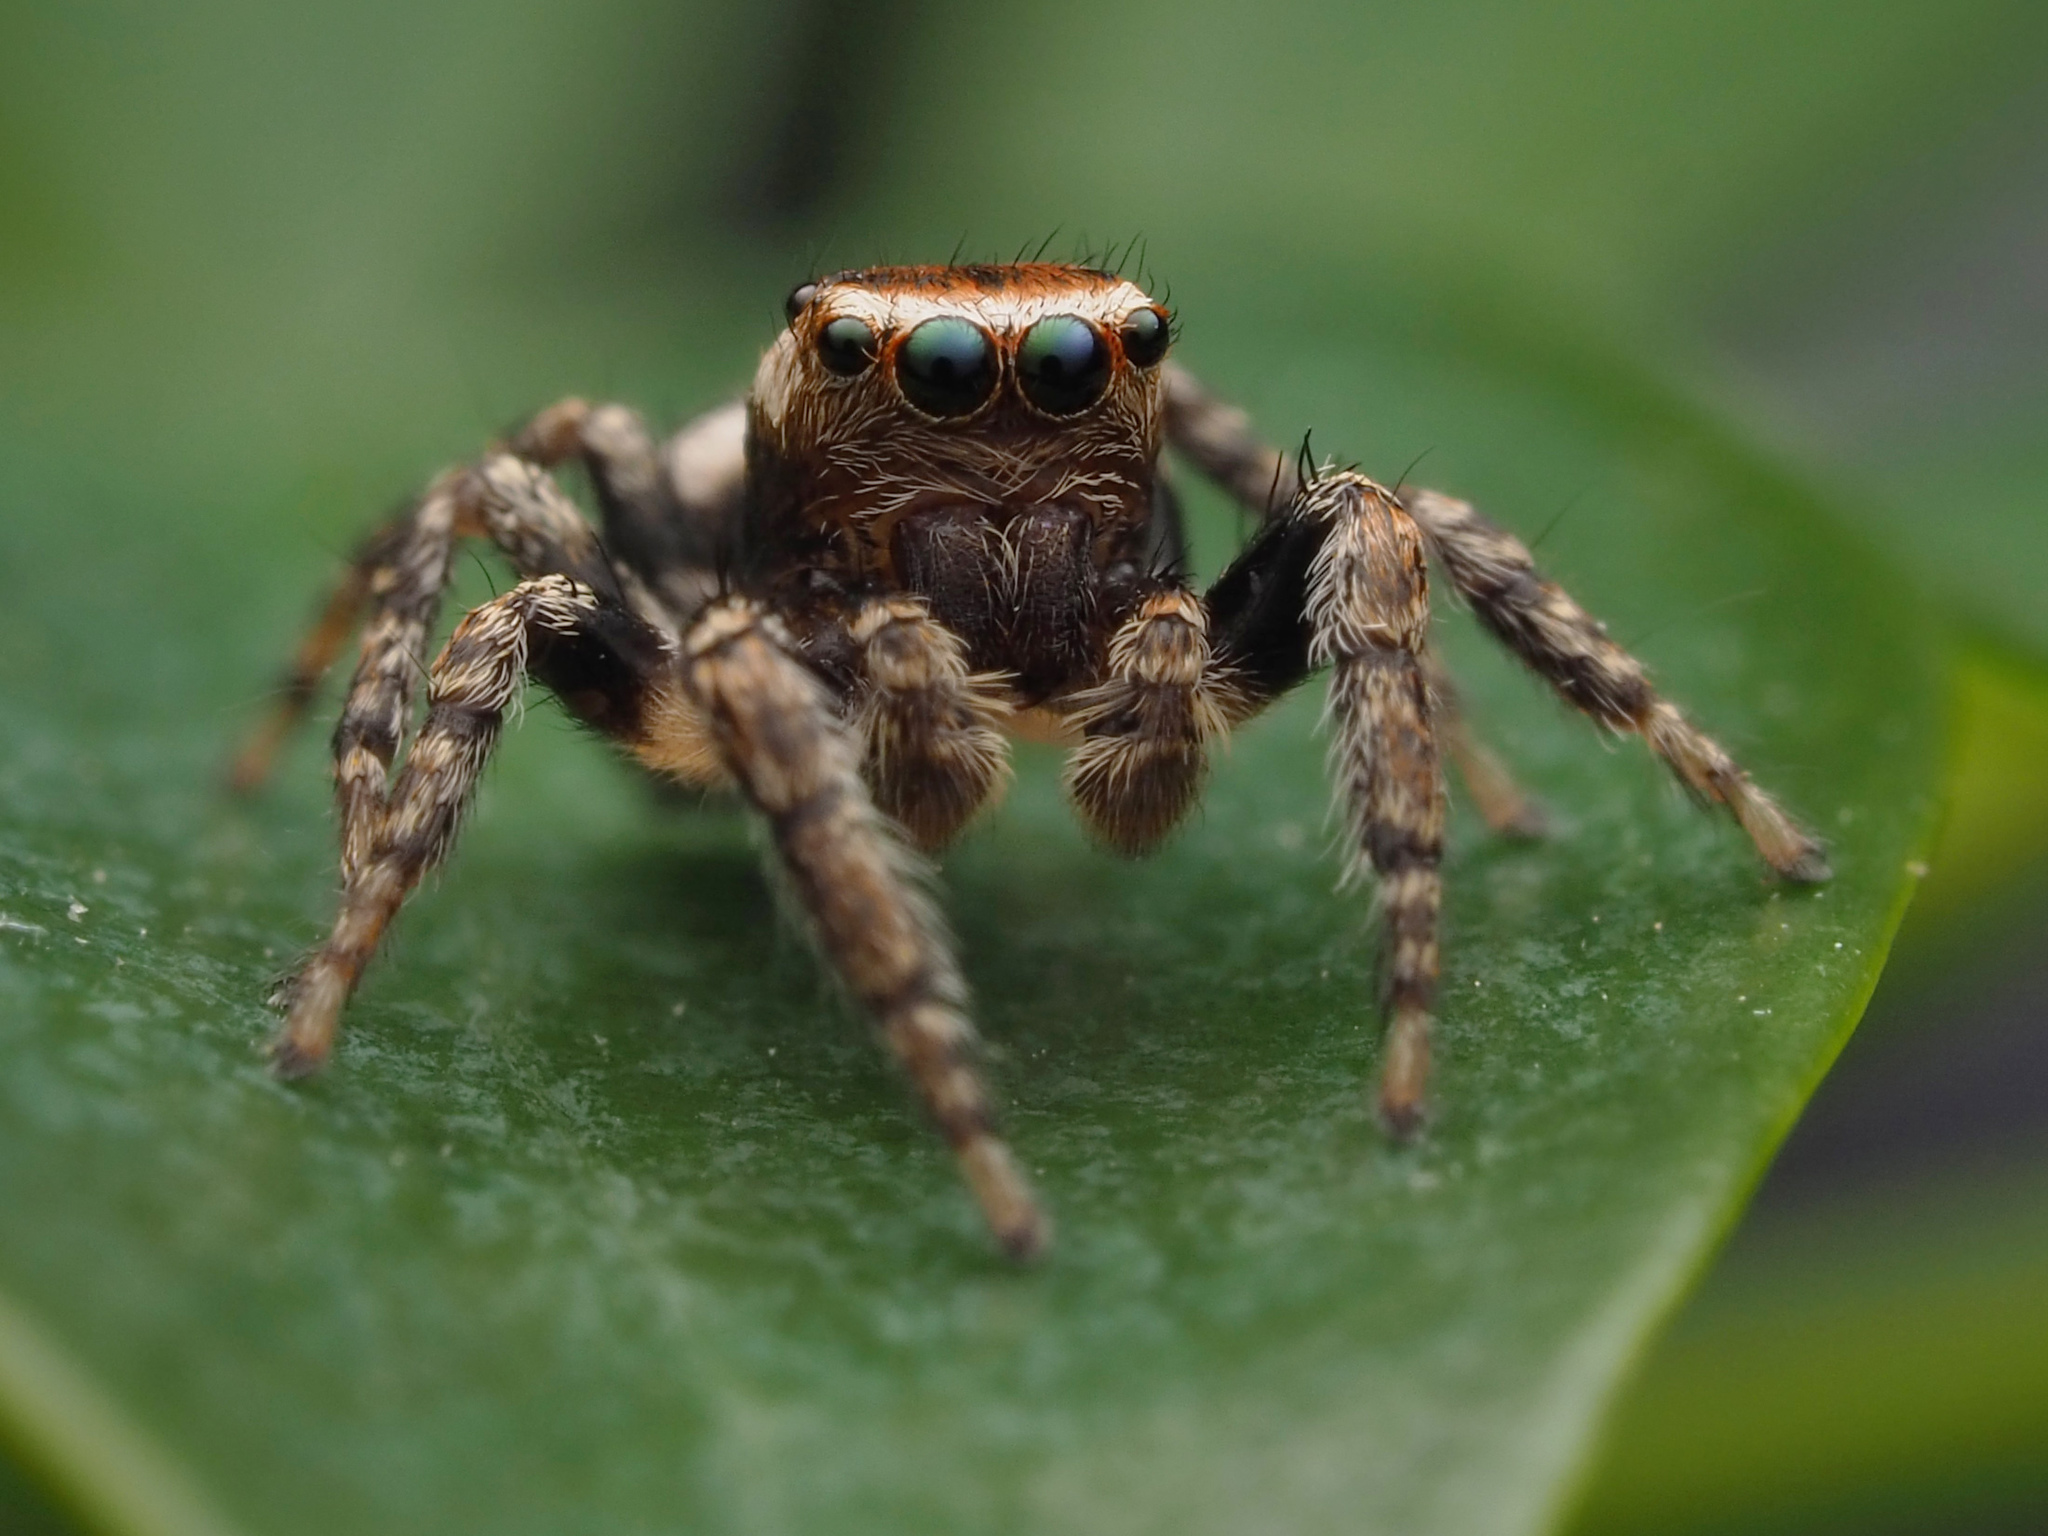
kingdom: Animalia
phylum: Arthropoda
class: Arachnida
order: Araneae
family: Salticidae
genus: Evarcha
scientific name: Evarcha hoyi
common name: Hoy's jumping spider
